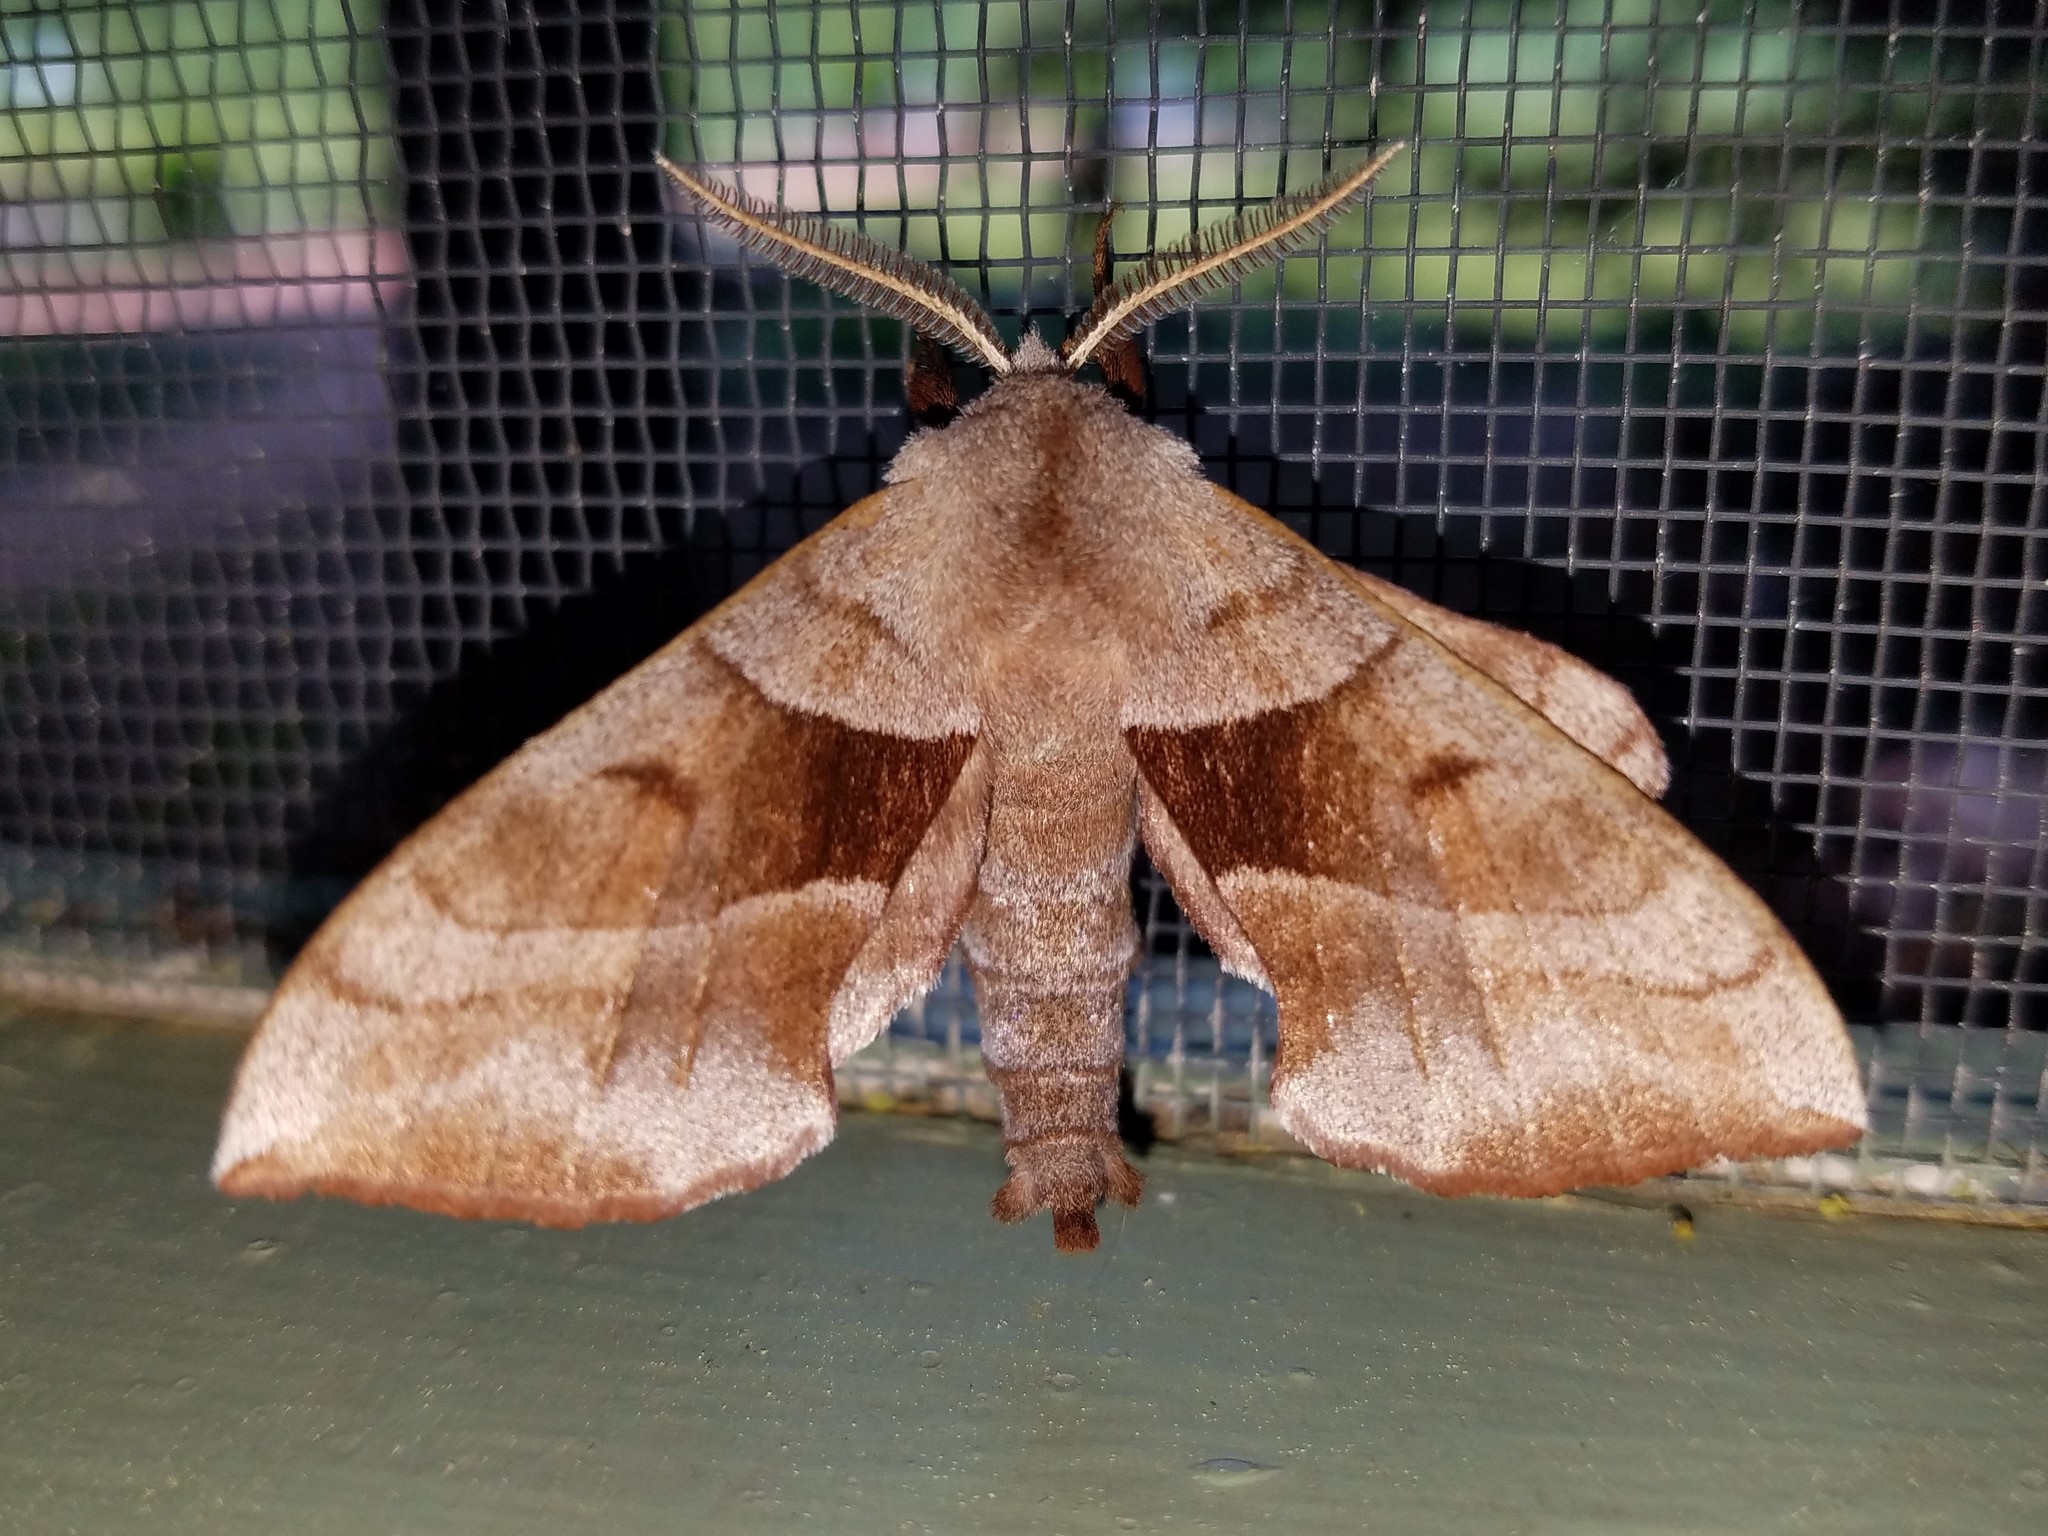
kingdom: Animalia
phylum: Arthropoda
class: Insecta
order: Lepidoptera
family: Sphingidae
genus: Amorpha
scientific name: Amorpha juglandis
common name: Walnut sphinx
